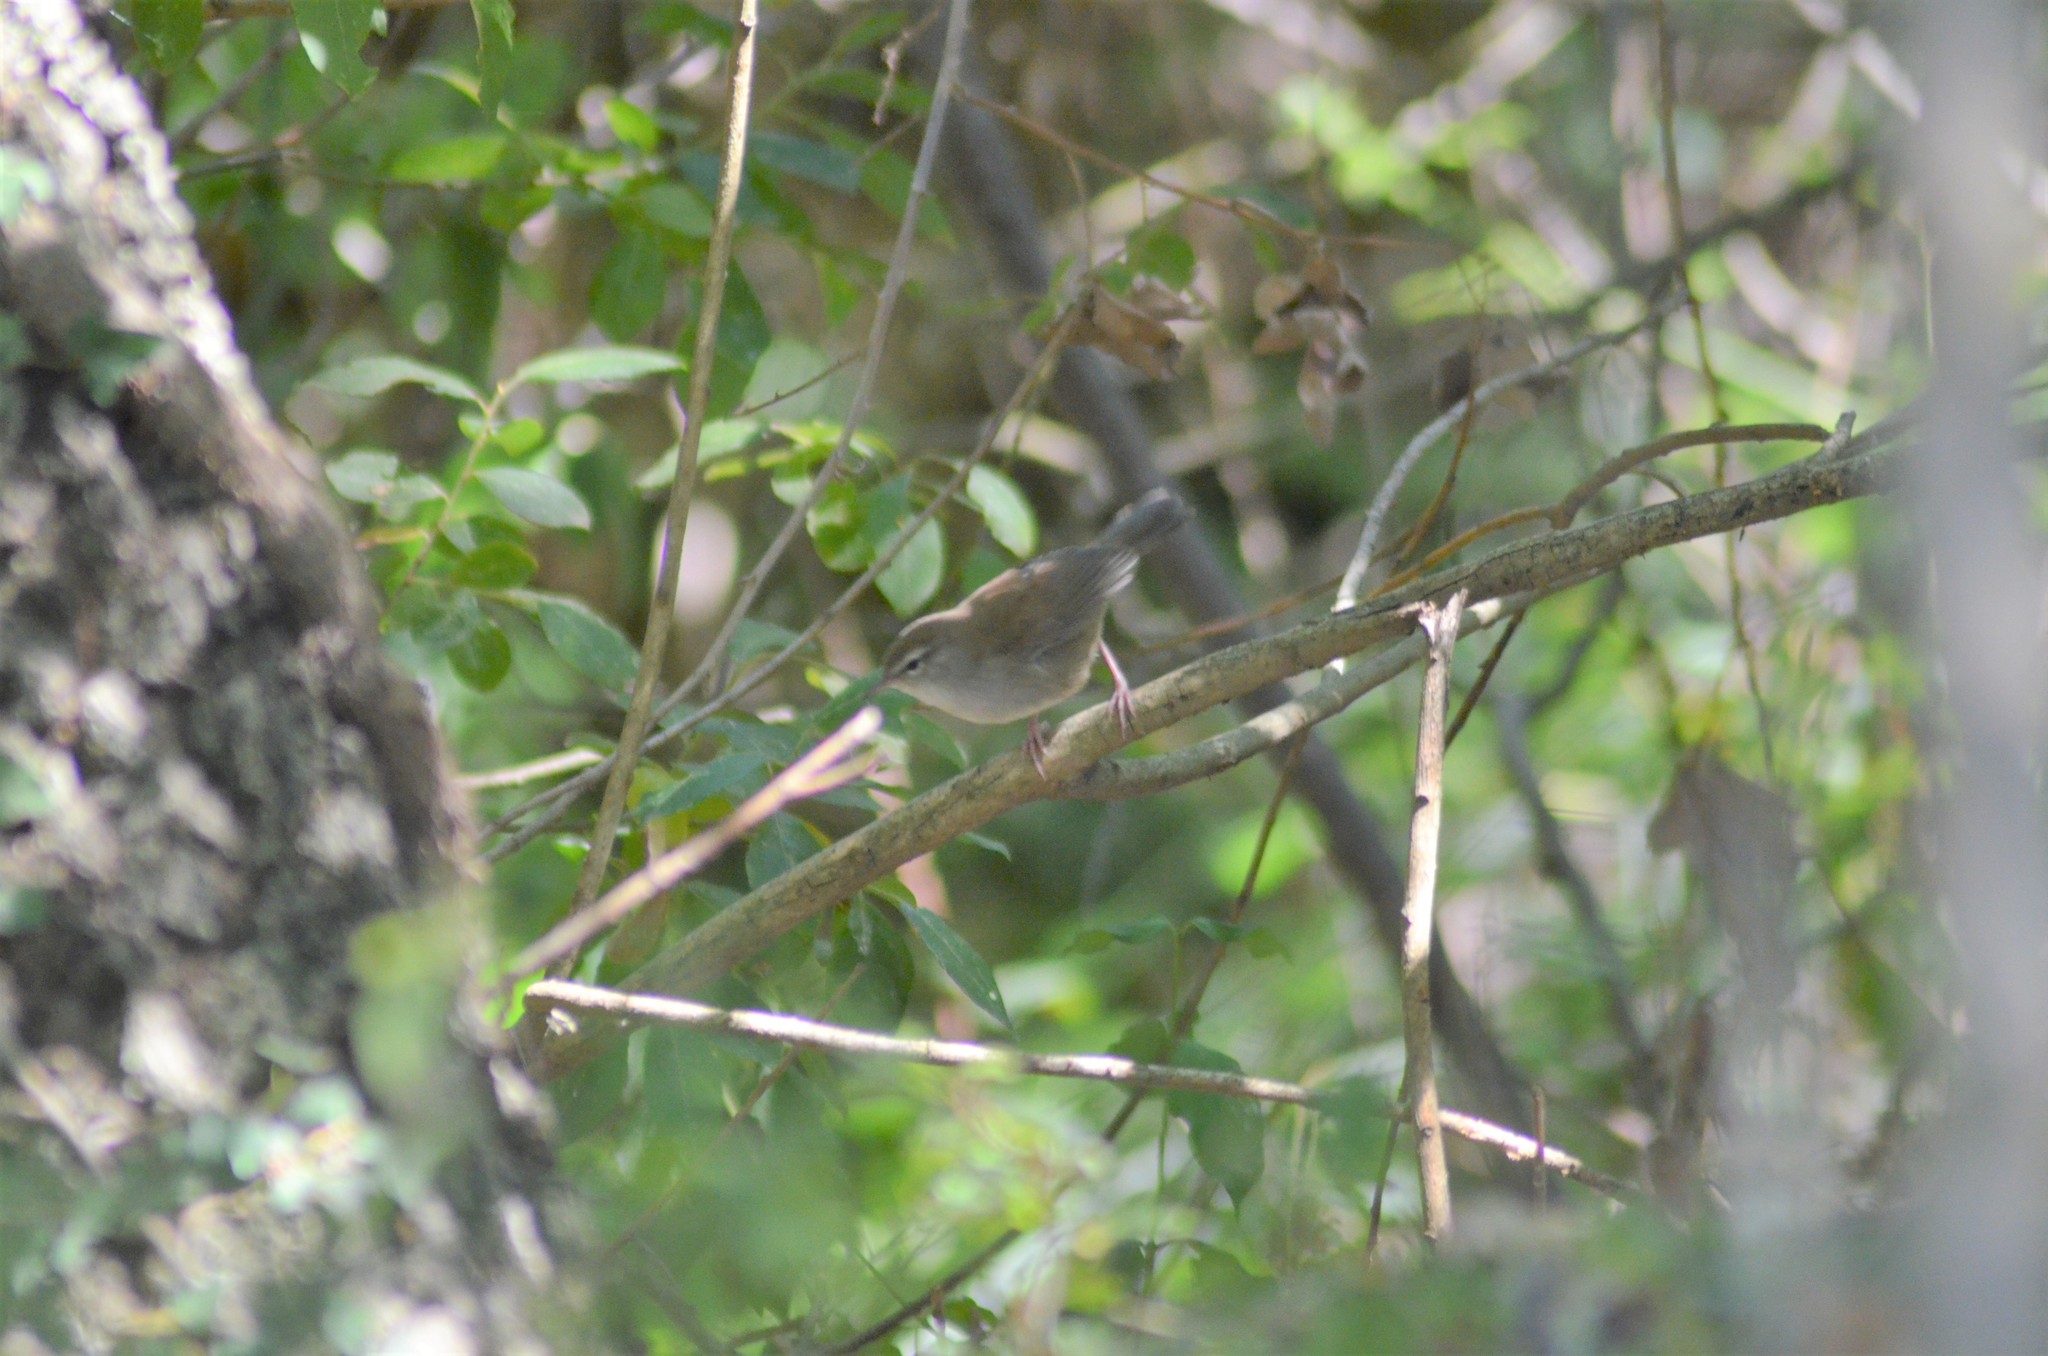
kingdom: Animalia
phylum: Chordata
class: Aves
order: Passeriformes
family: Cettiidae
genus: Cettia
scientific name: Cettia cetti
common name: Cetti's warbler
